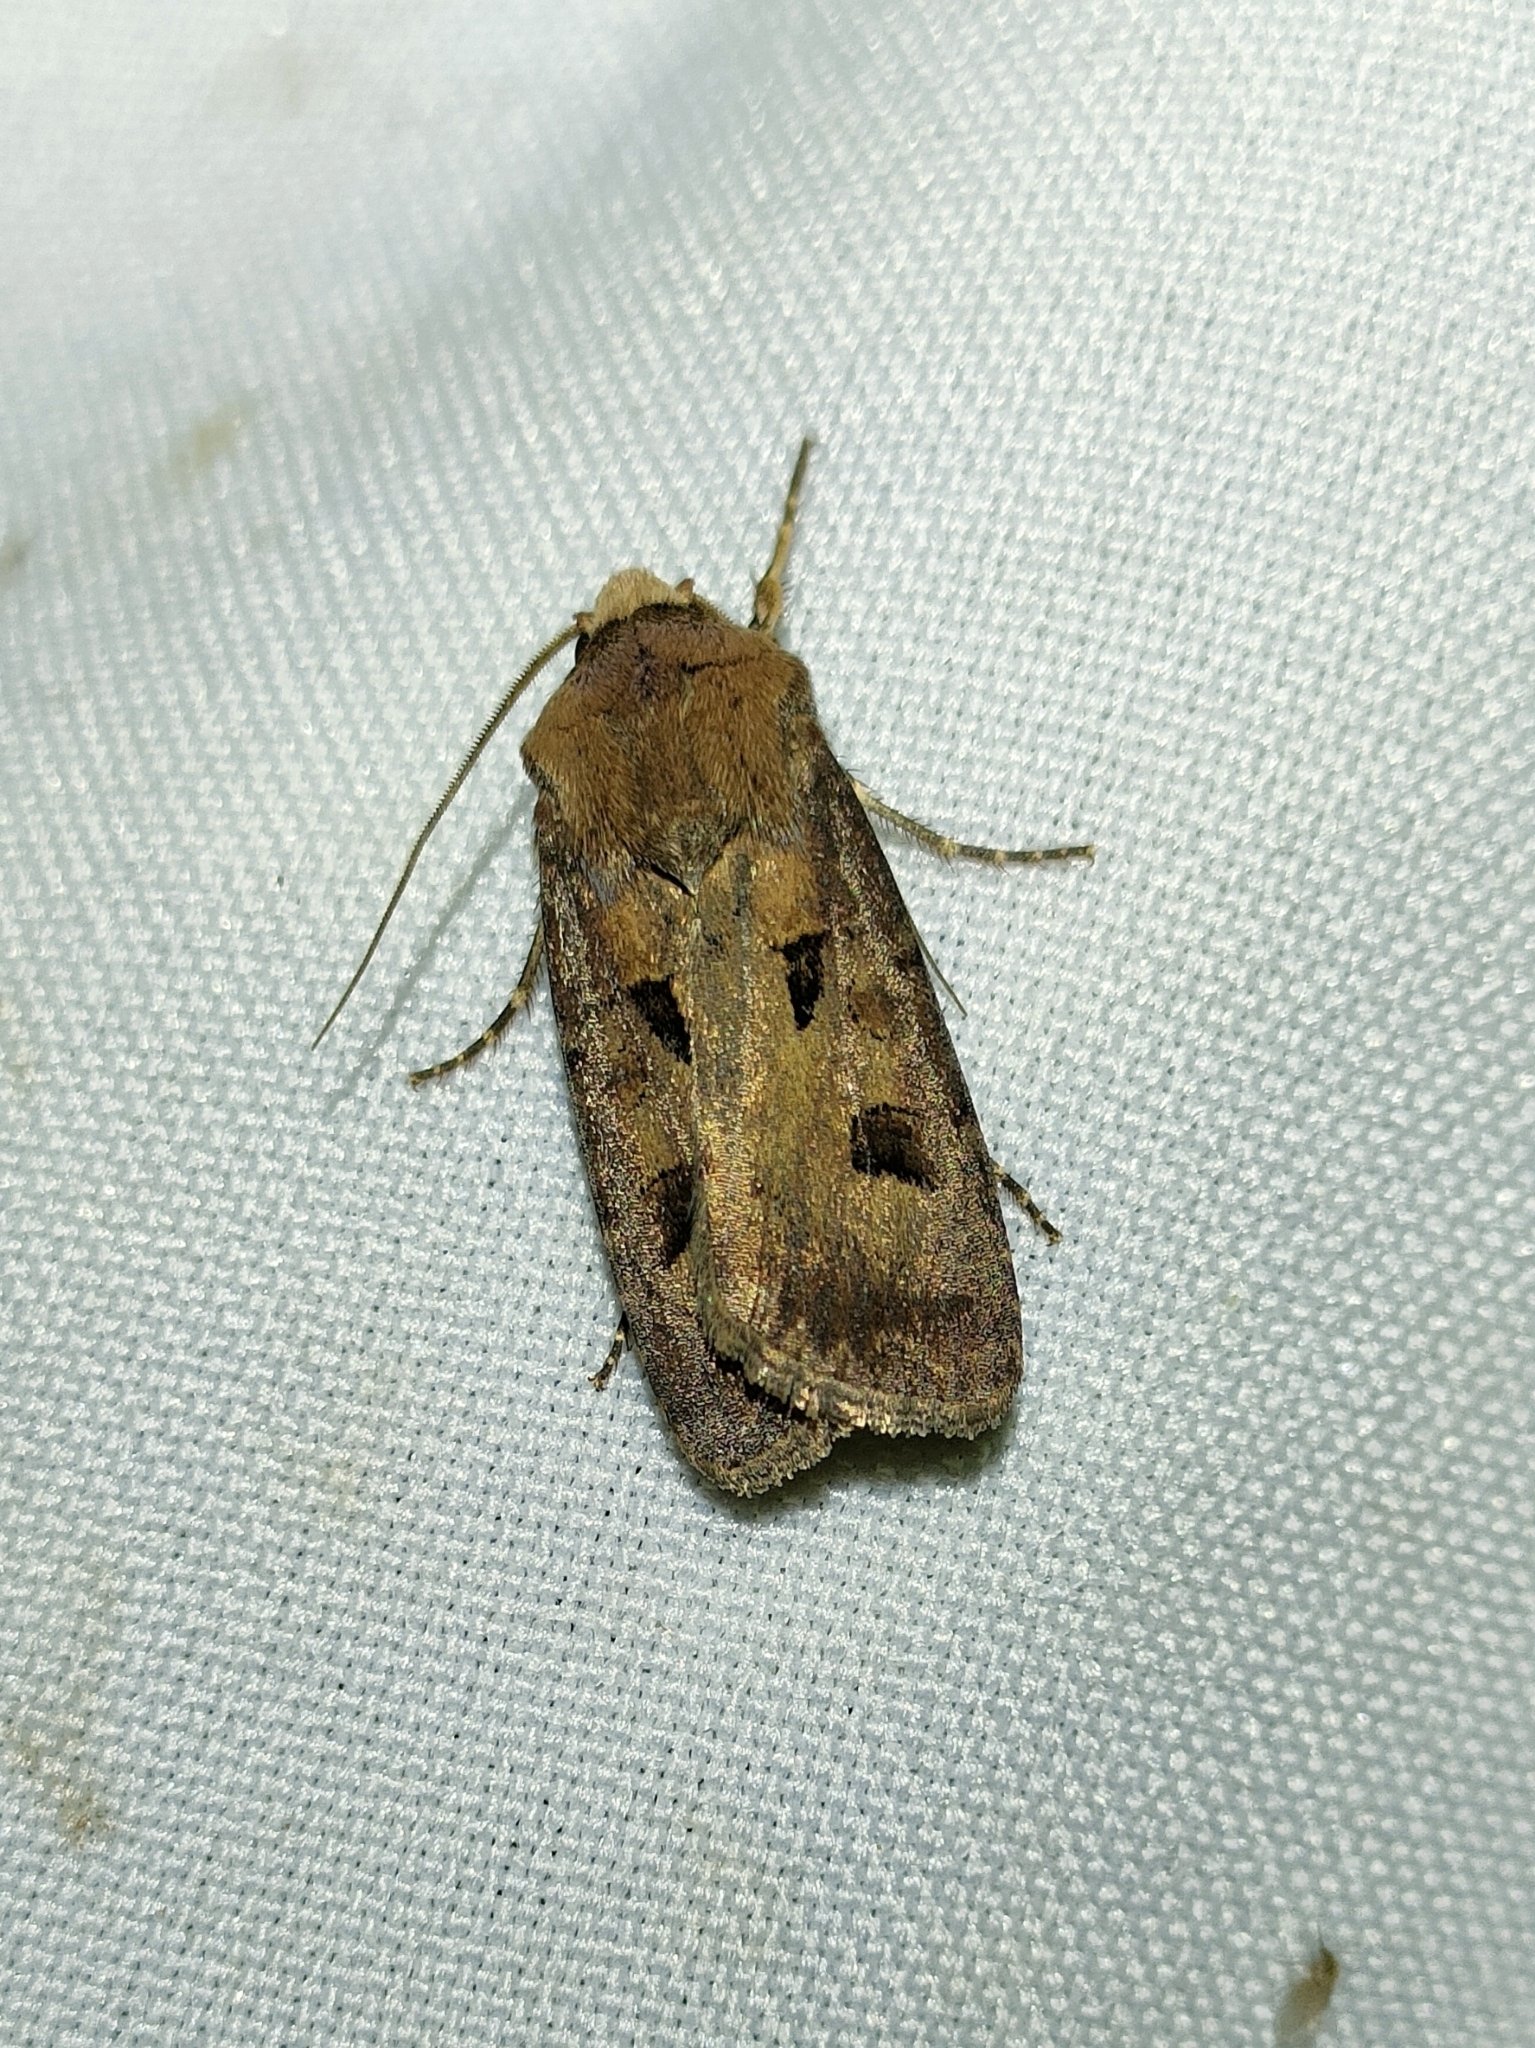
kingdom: Animalia
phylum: Arthropoda
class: Insecta
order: Lepidoptera
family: Noctuidae
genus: Agrotis
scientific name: Agrotis exclamationis
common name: Heart and dart
